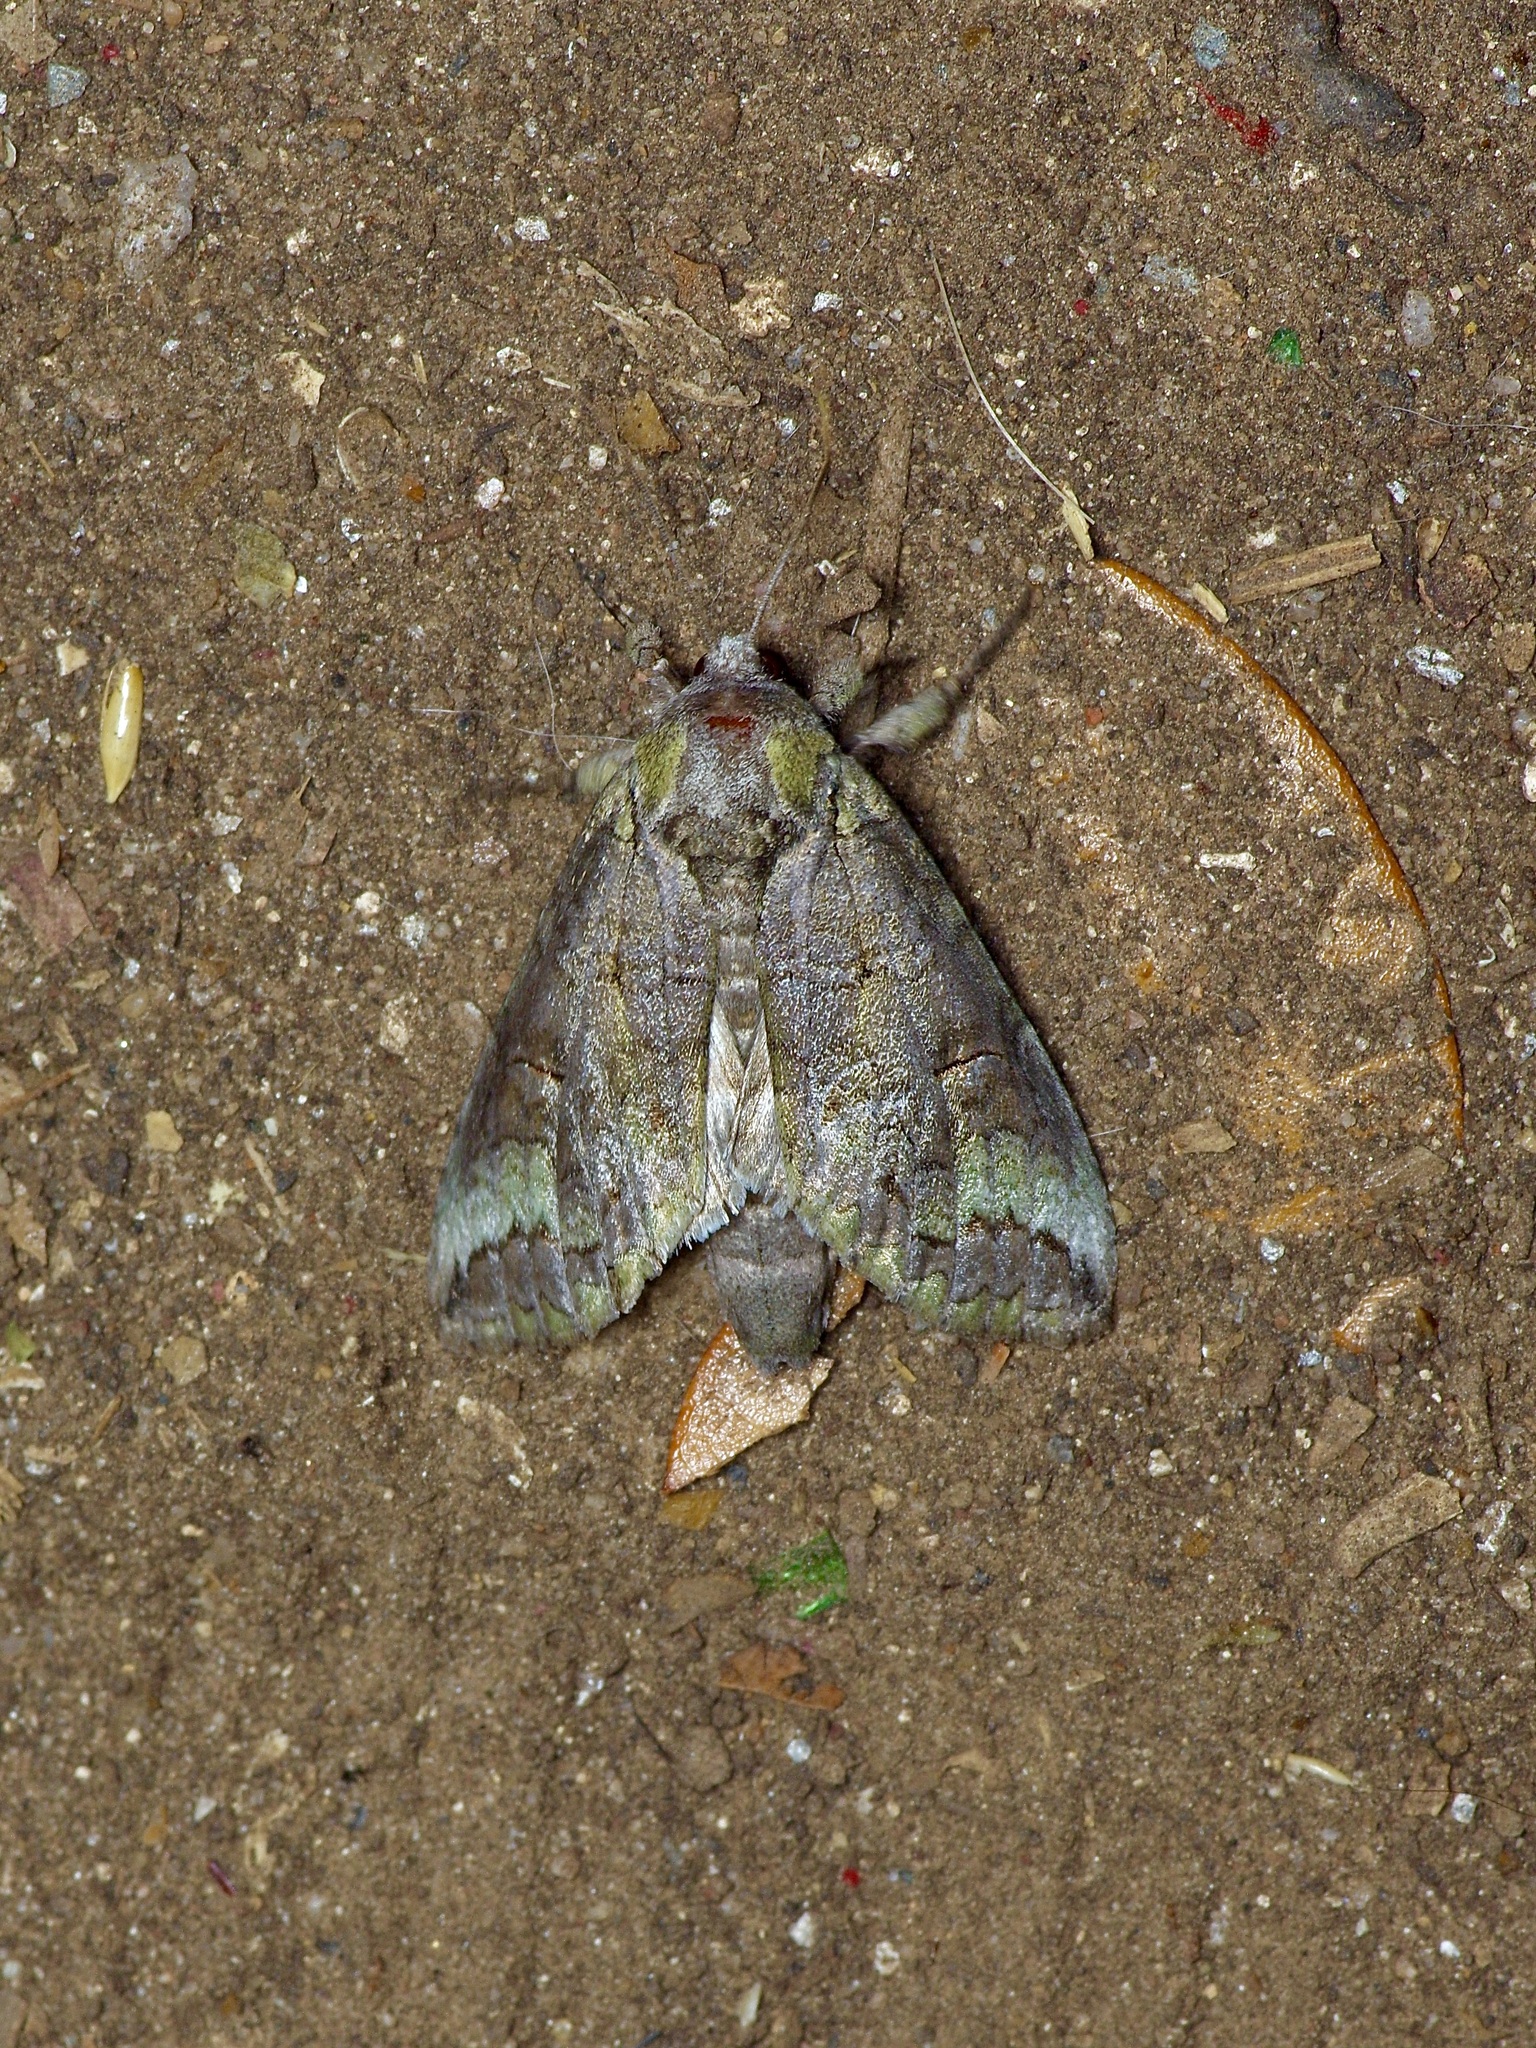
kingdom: Animalia
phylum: Arthropoda
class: Insecta
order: Lepidoptera
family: Notodontidae
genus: Heterocampa
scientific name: Heterocampa astartoides
